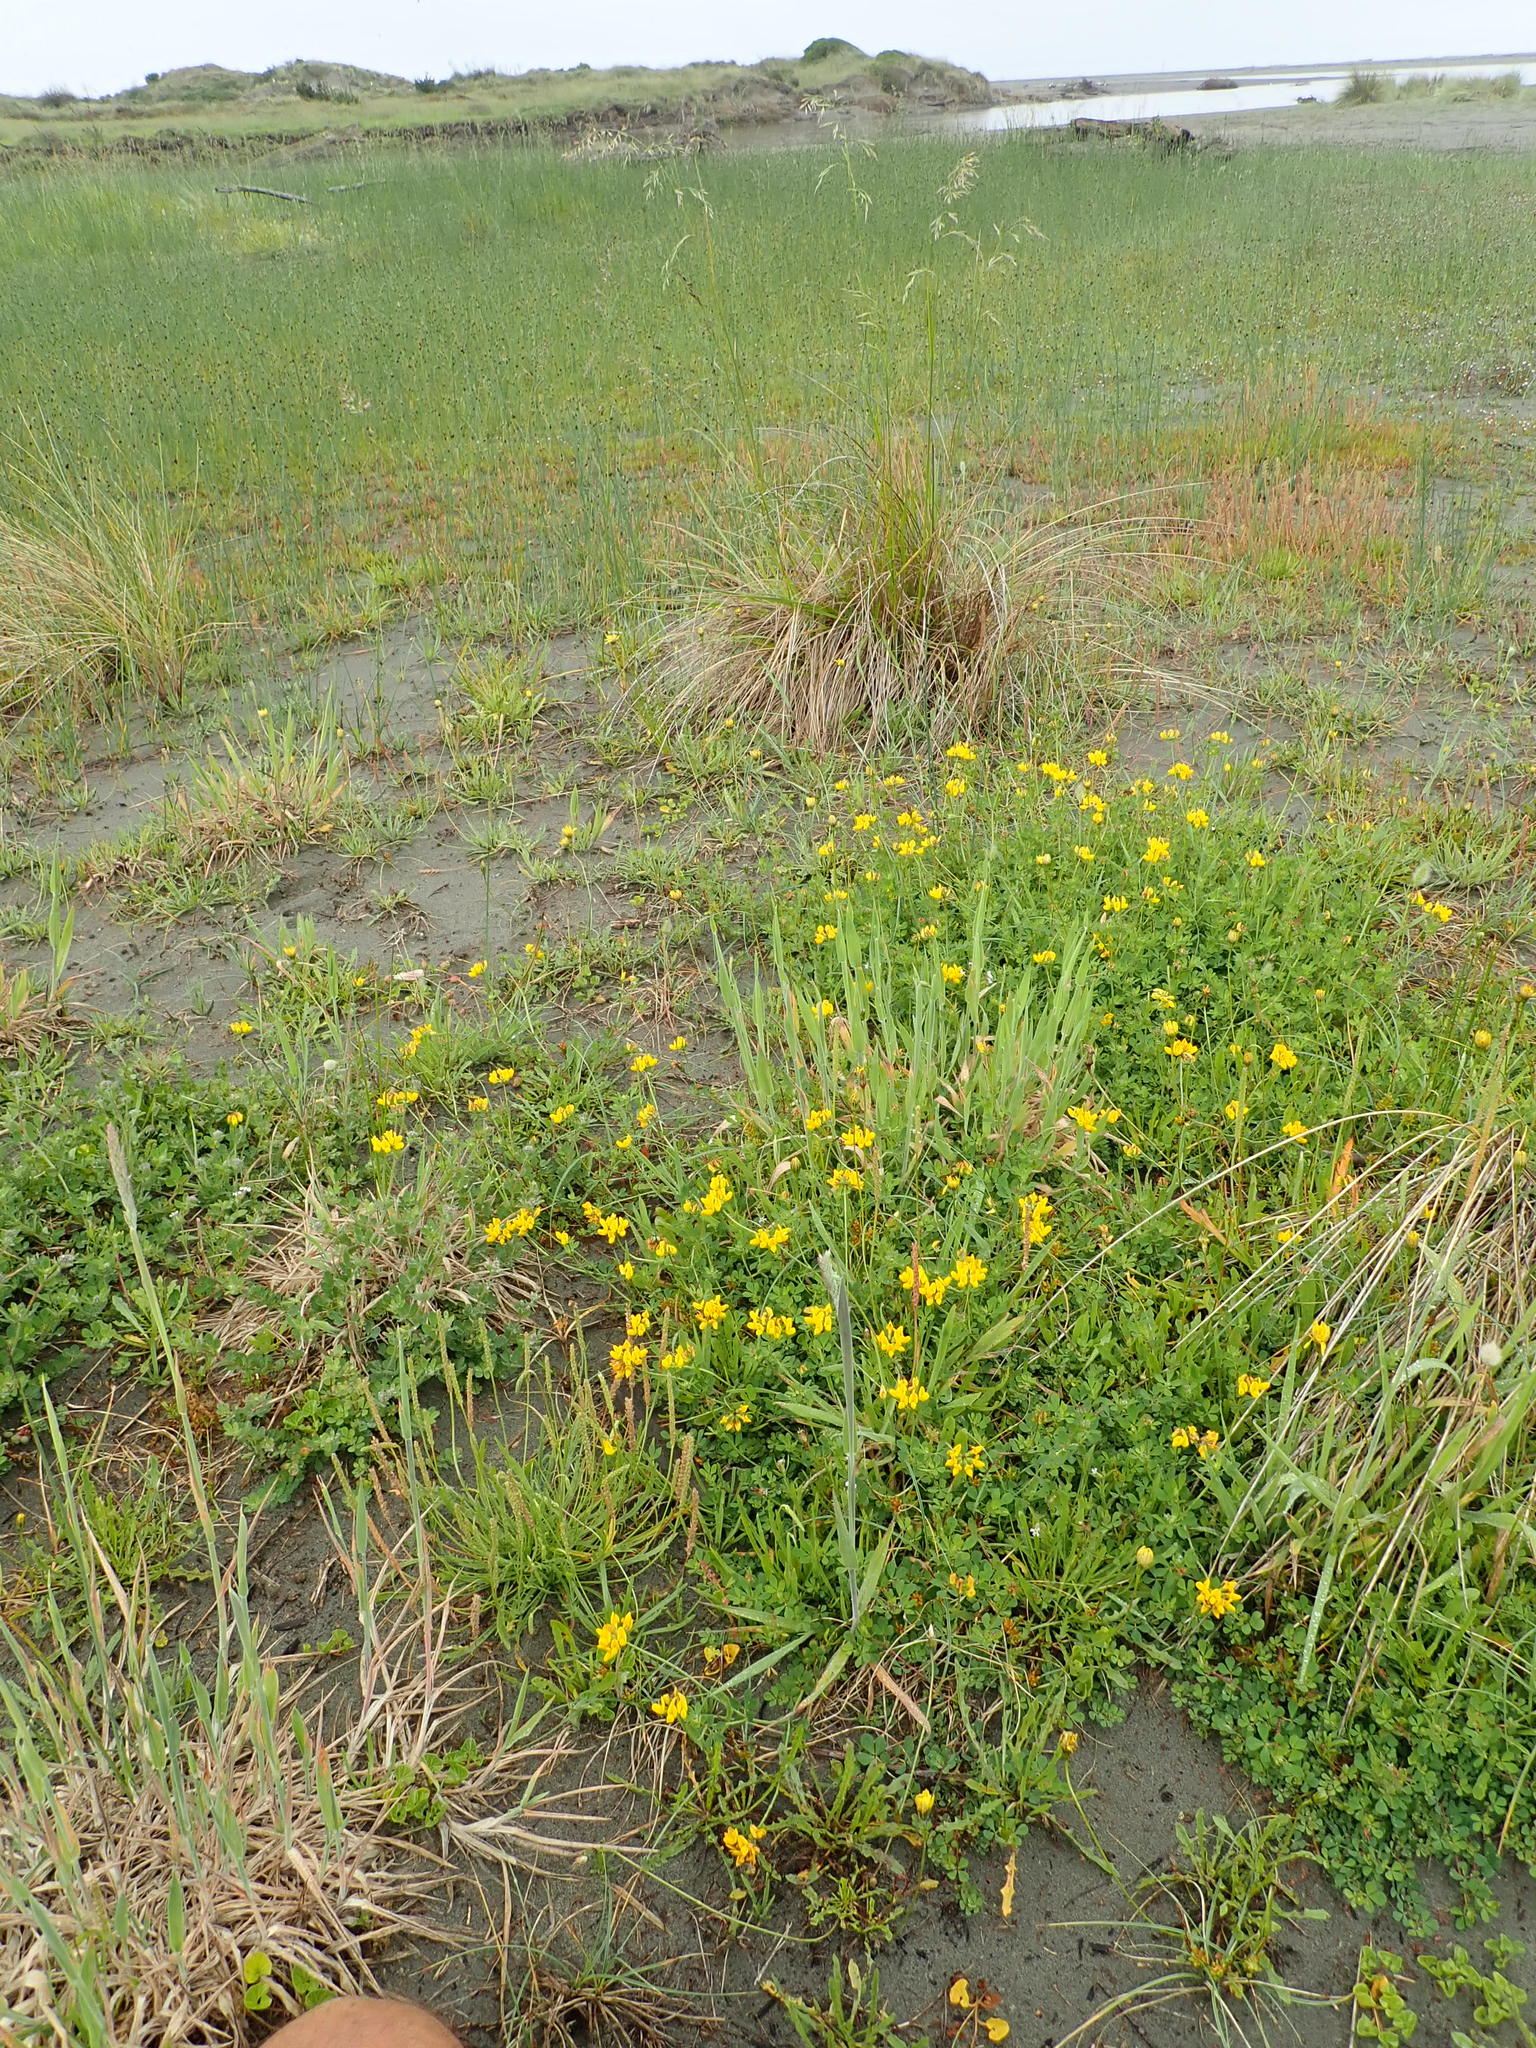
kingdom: Plantae
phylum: Tracheophyta
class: Magnoliopsida
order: Fabales
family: Fabaceae
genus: Lotus
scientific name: Lotus pedunculatus
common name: Greater birdsfoot-trefoil
